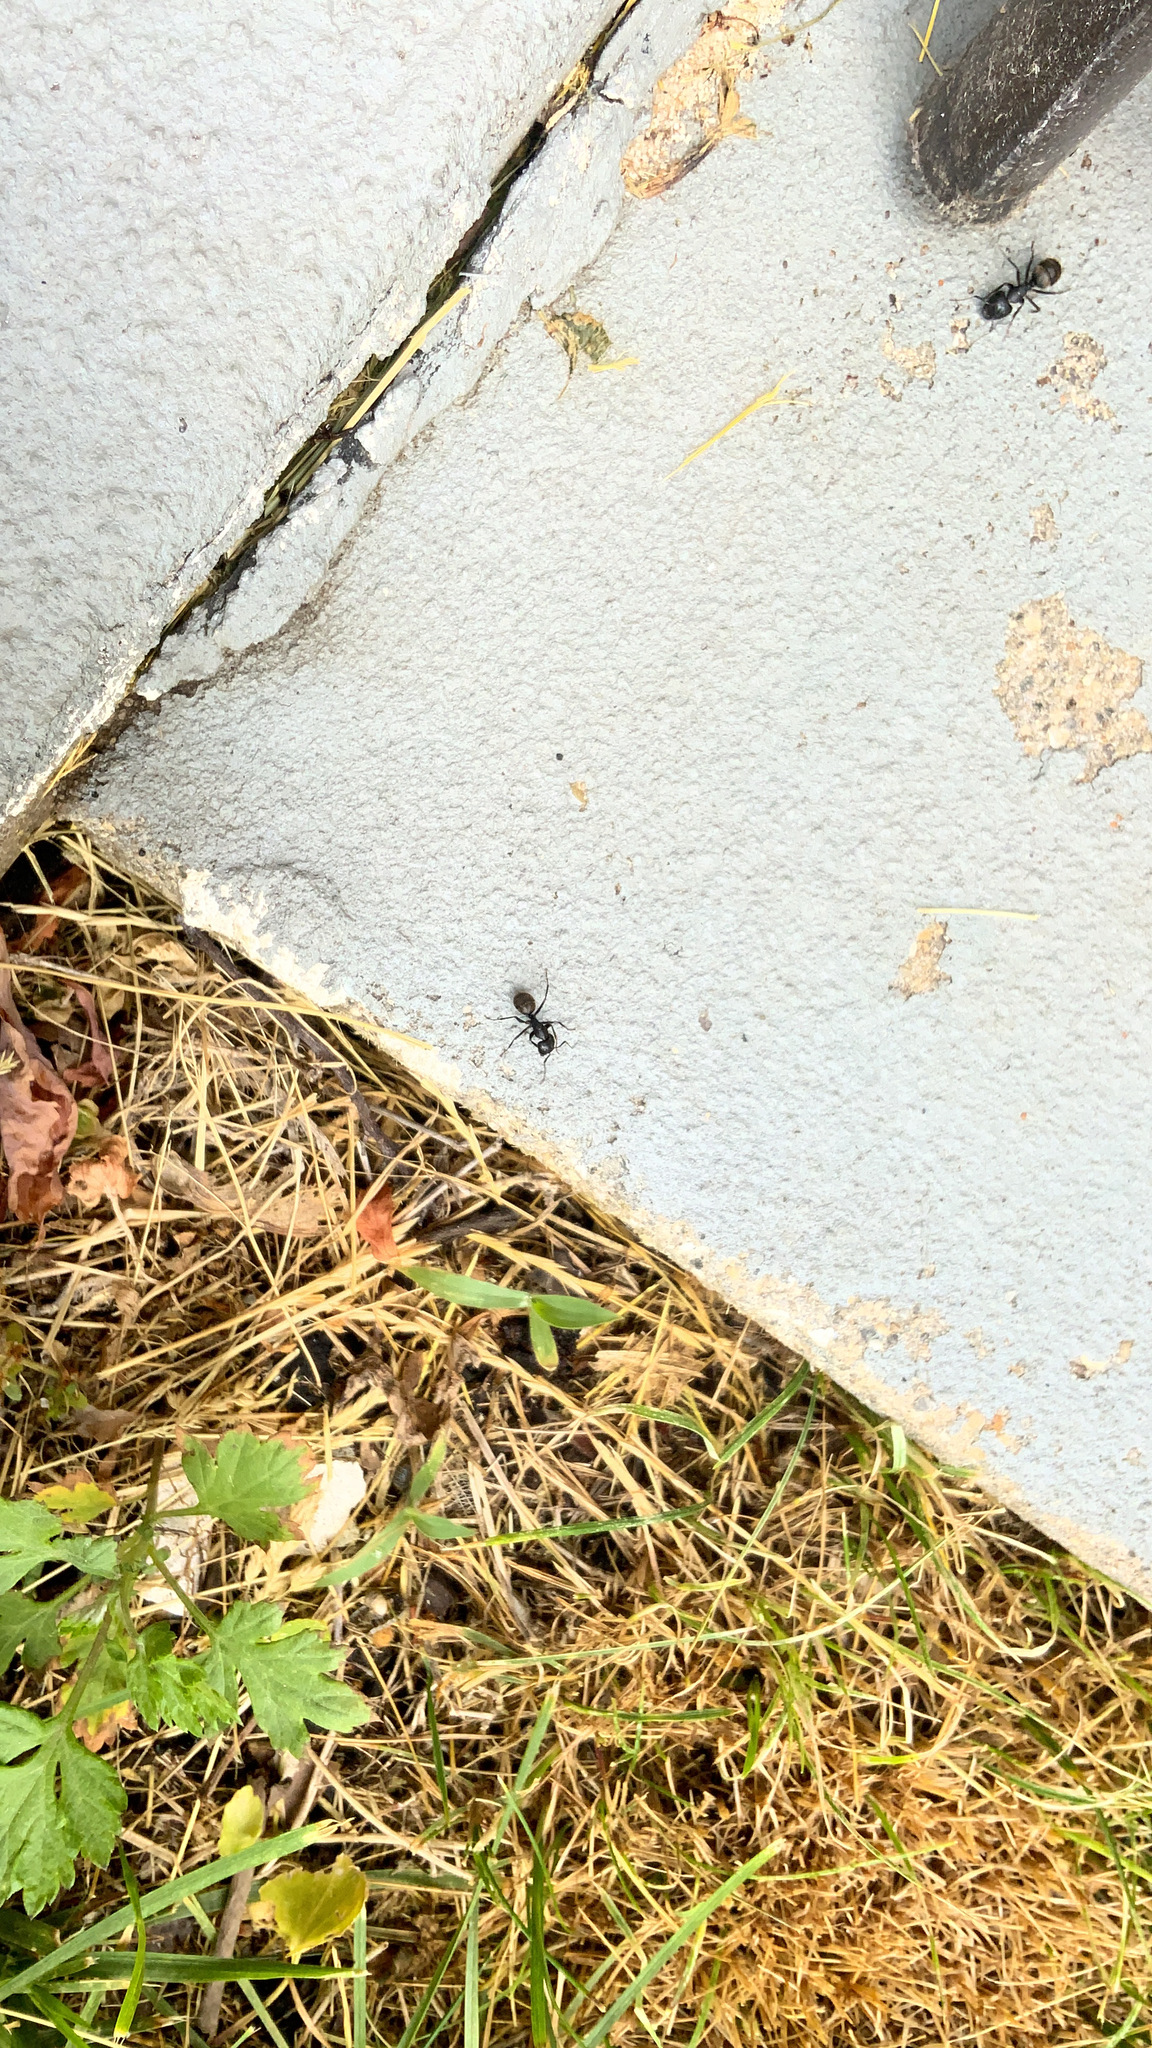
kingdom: Animalia
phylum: Arthropoda
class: Insecta
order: Hymenoptera
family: Formicidae
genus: Camponotus
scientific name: Camponotus pennsylvanicus
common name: Black carpenter ant
